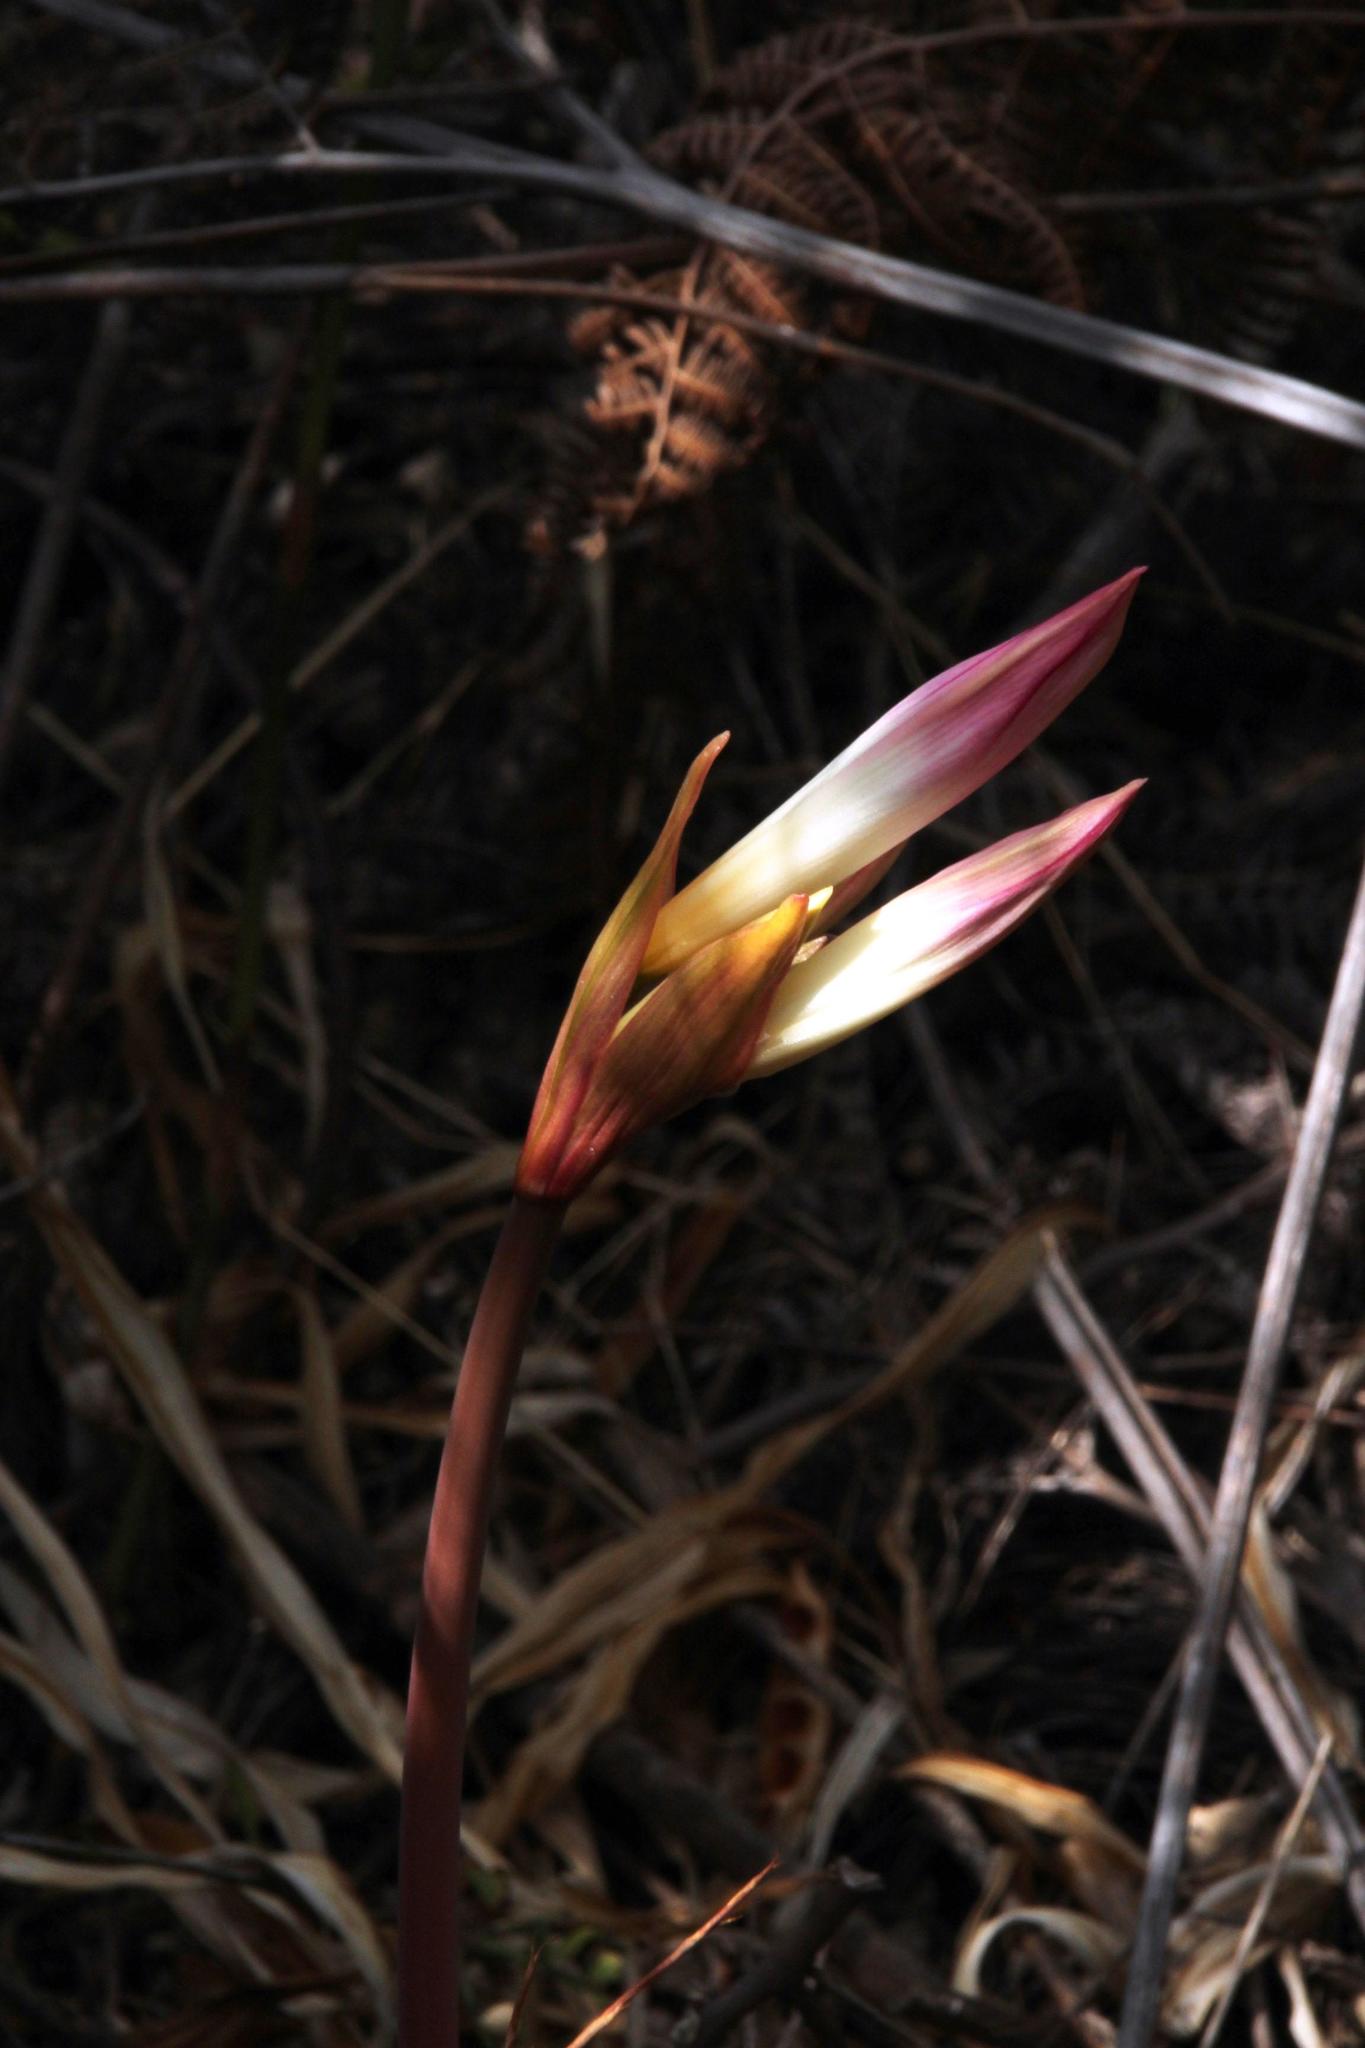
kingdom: Plantae
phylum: Tracheophyta
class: Liliopsida
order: Asparagales
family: Amaryllidaceae
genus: Amaryllis
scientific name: Amaryllis belladonna
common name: Jersey lily
